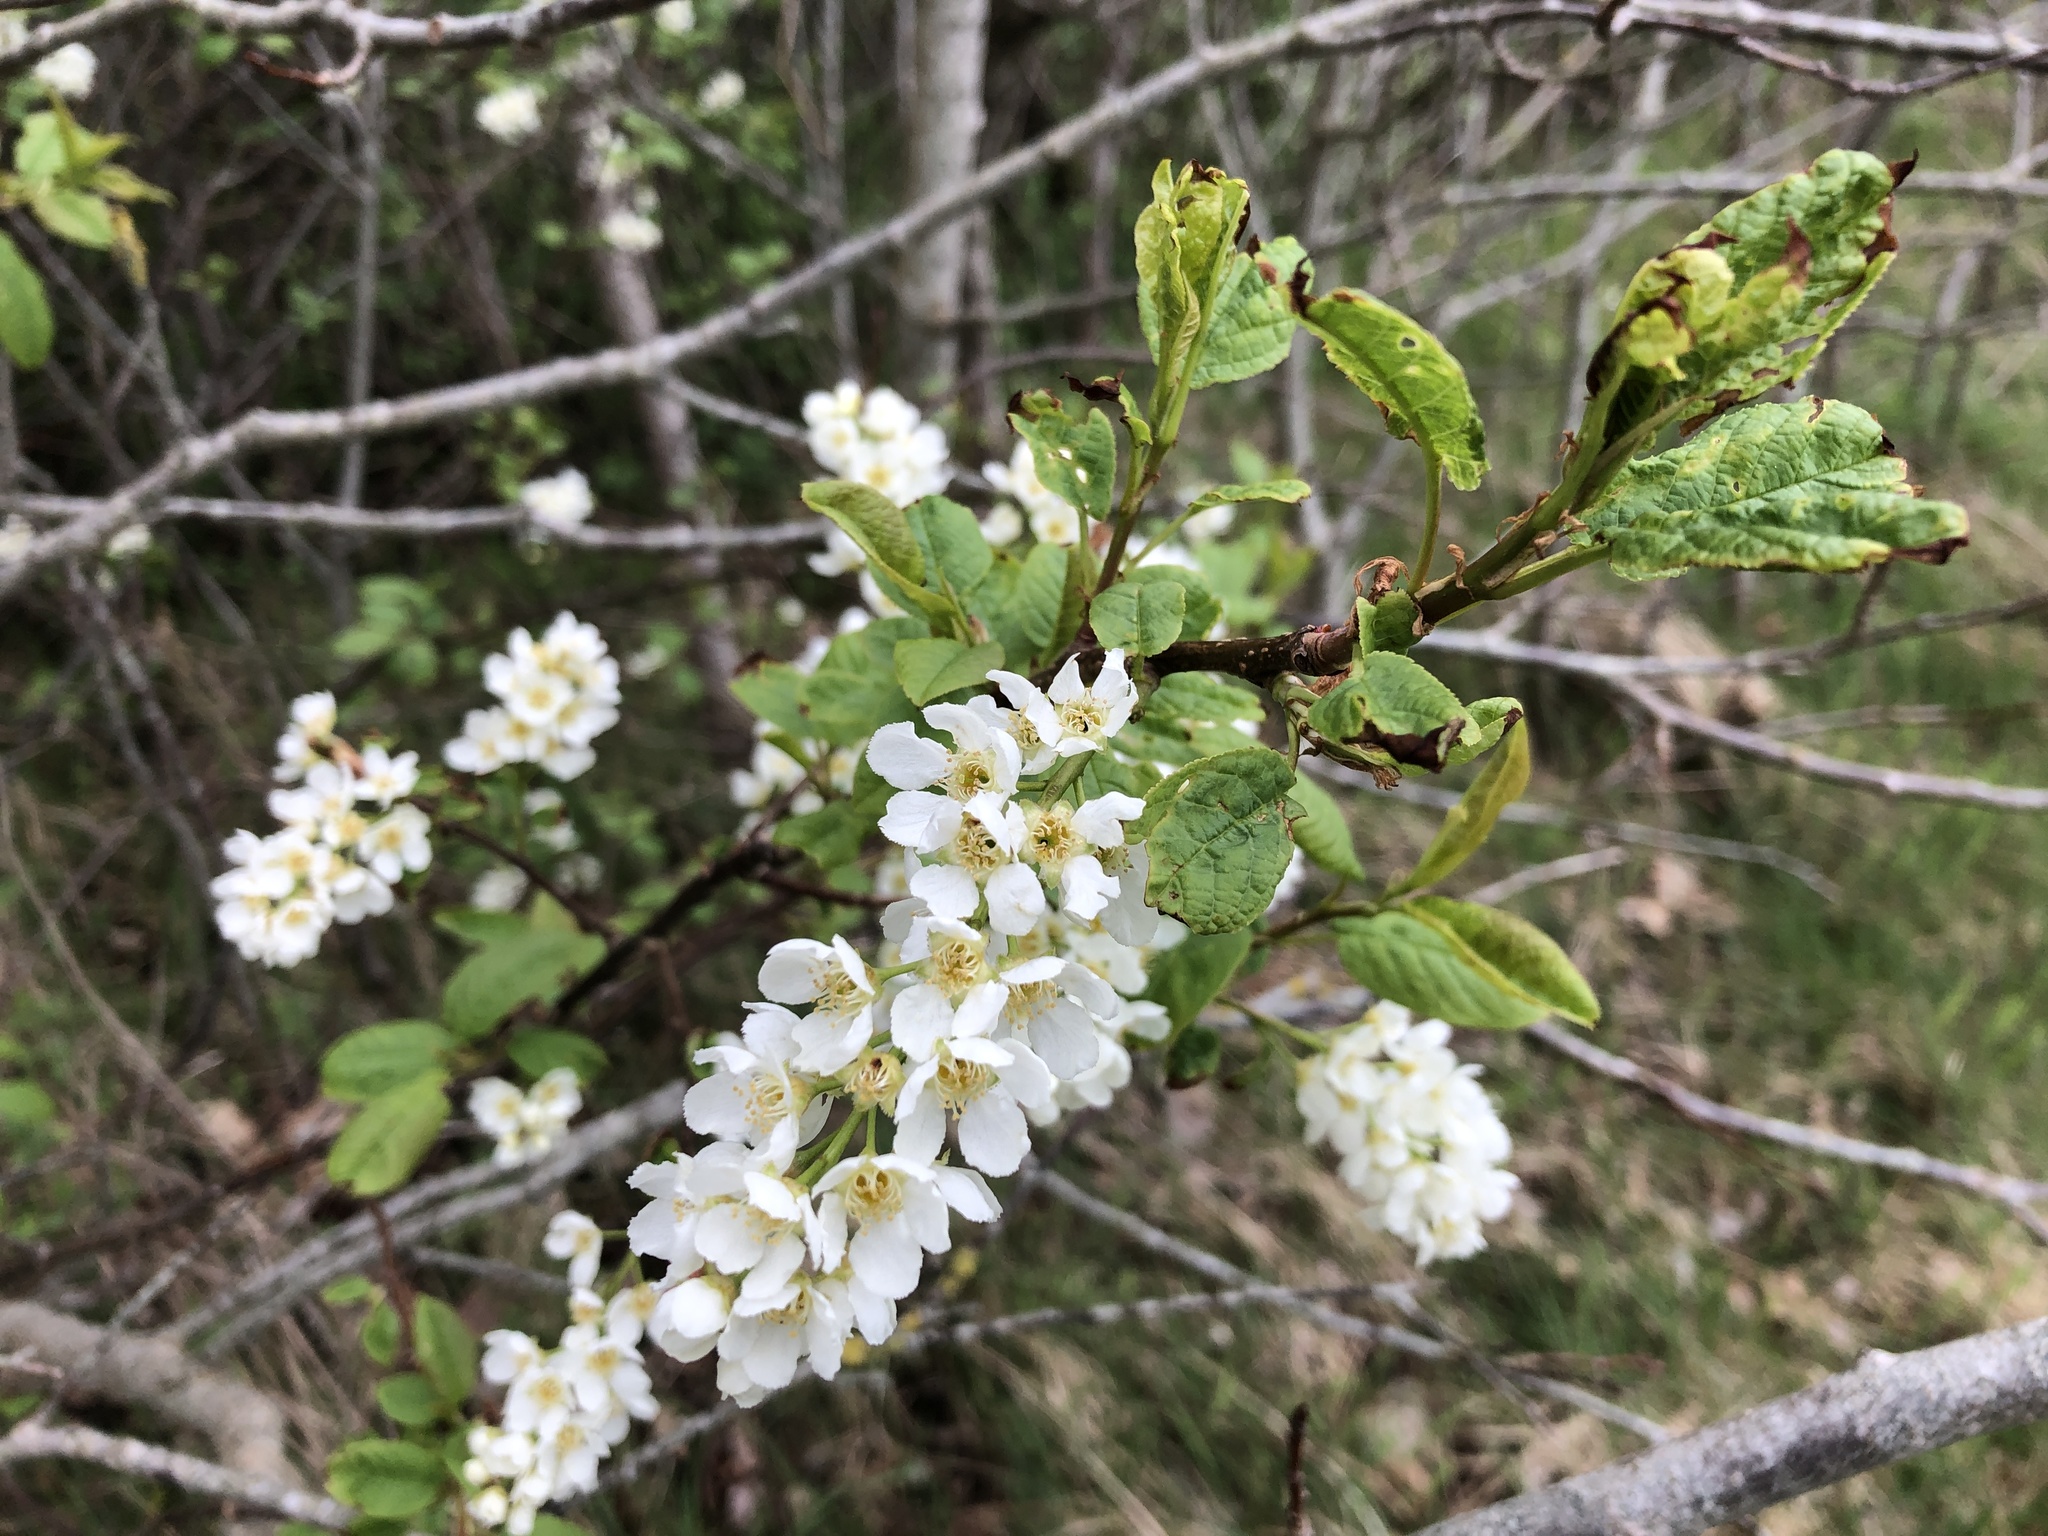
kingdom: Plantae
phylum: Tracheophyta
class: Magnoliopsida
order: Rosales
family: Rosaceae
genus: Prunus
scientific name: Prunus padus
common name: Bird cherry
